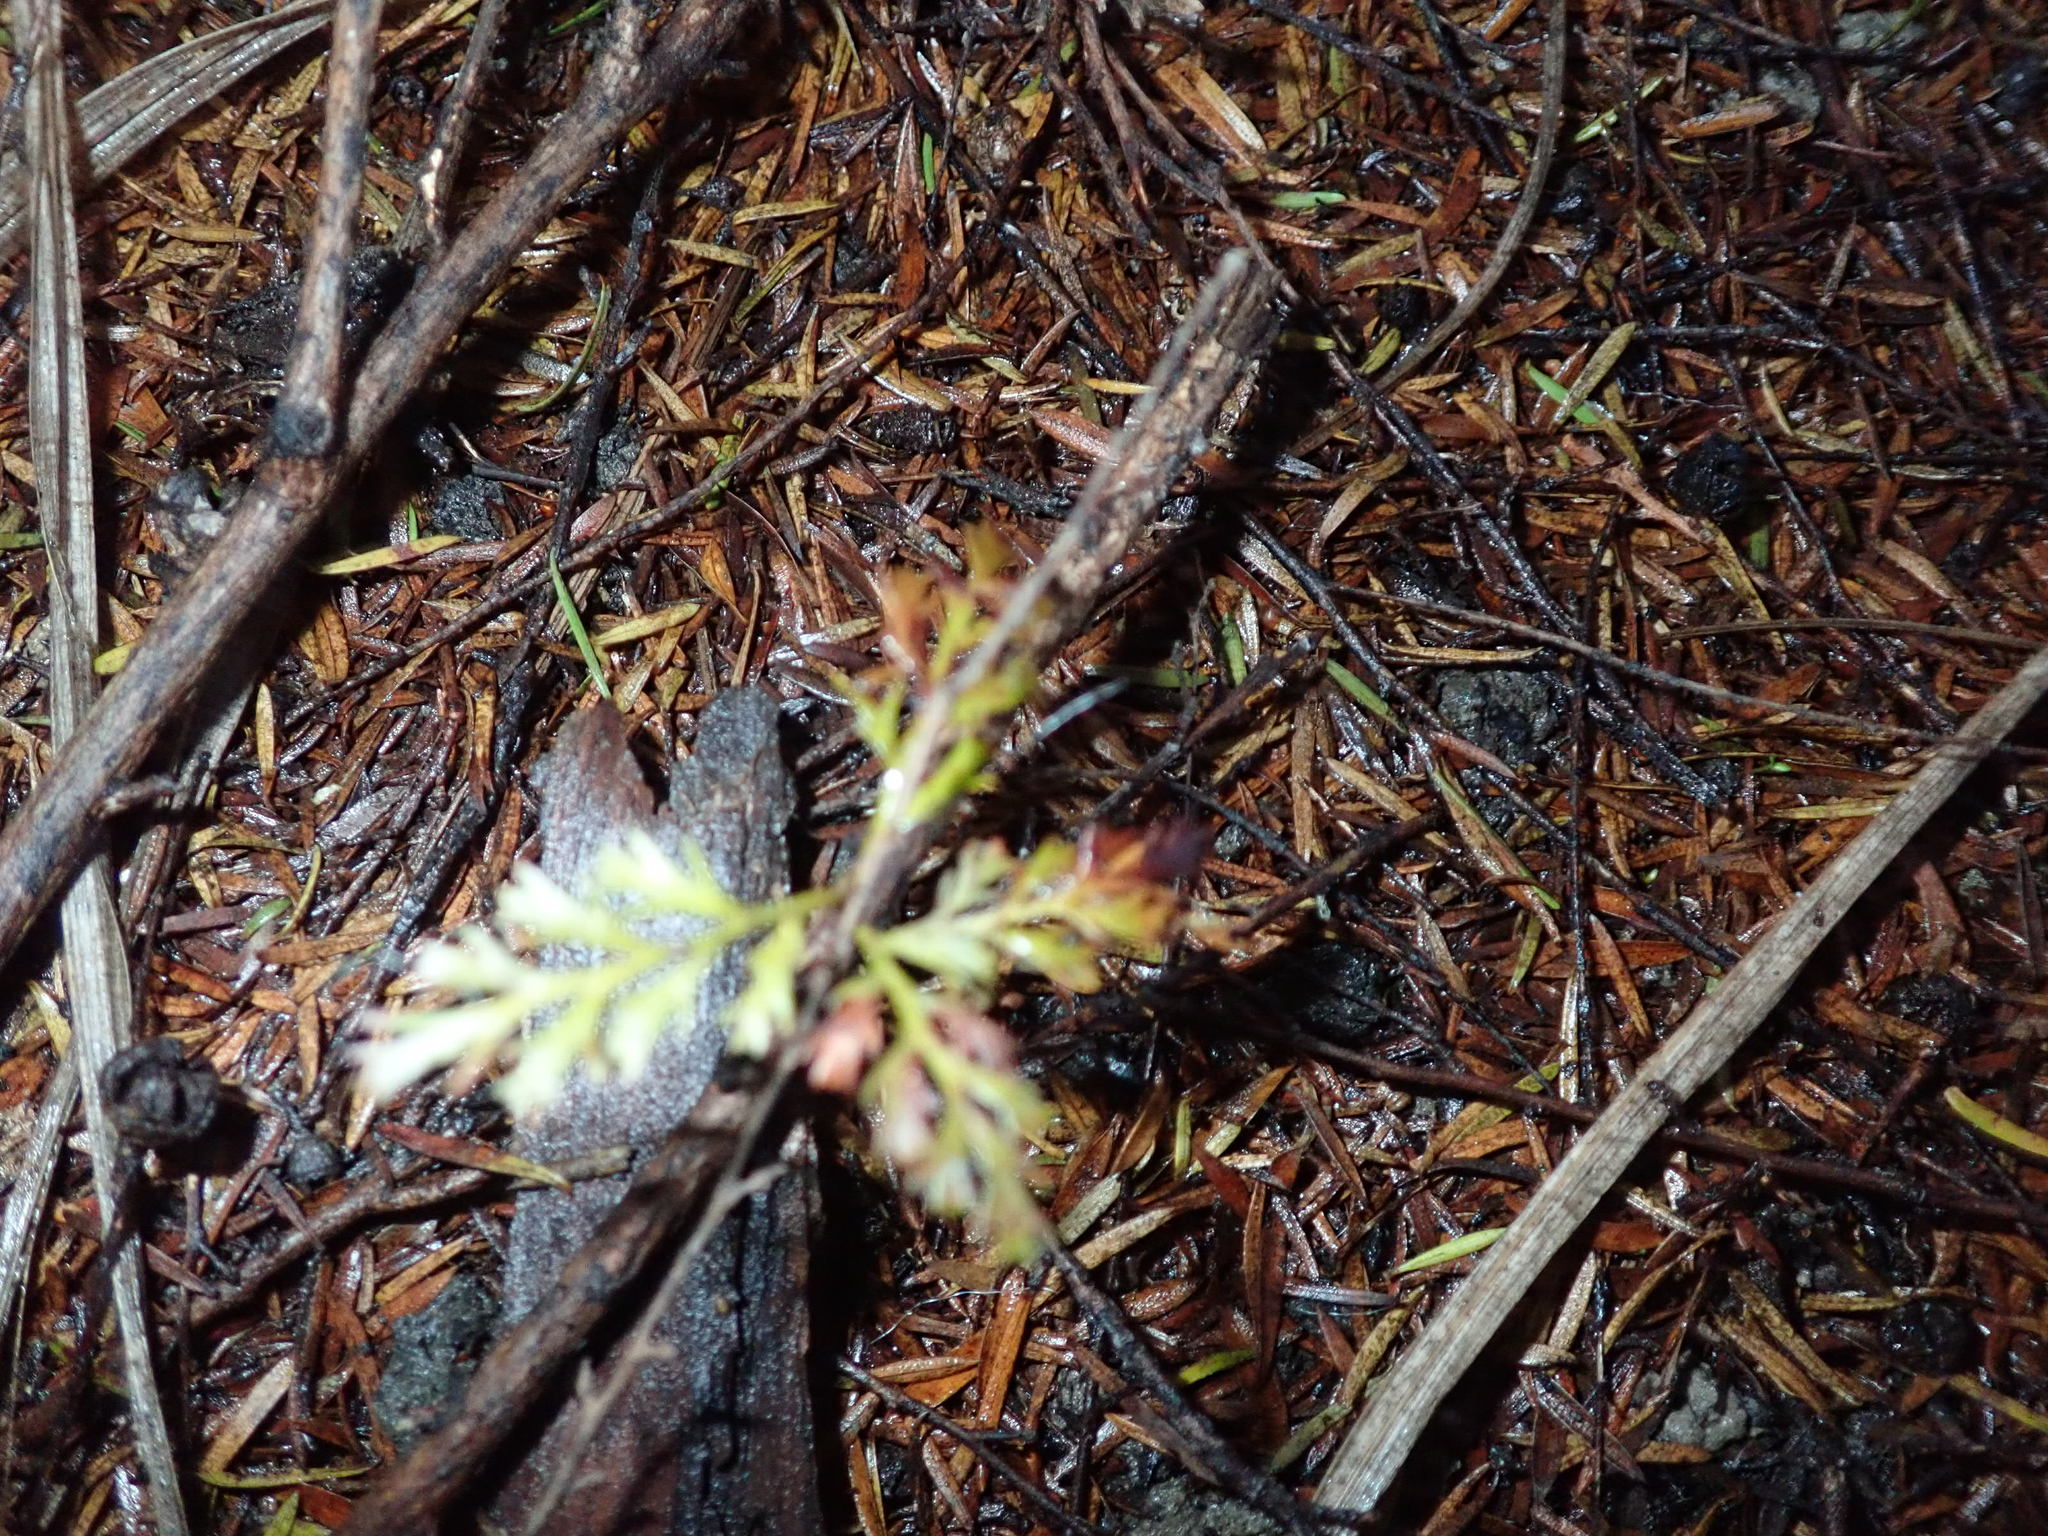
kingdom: Plantae
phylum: Tracheophyta
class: Pinopsida
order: Pinales
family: Phyllocladaceae
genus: Phyllocladus
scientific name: Phyllocladus trichomanoides
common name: Celery pine
